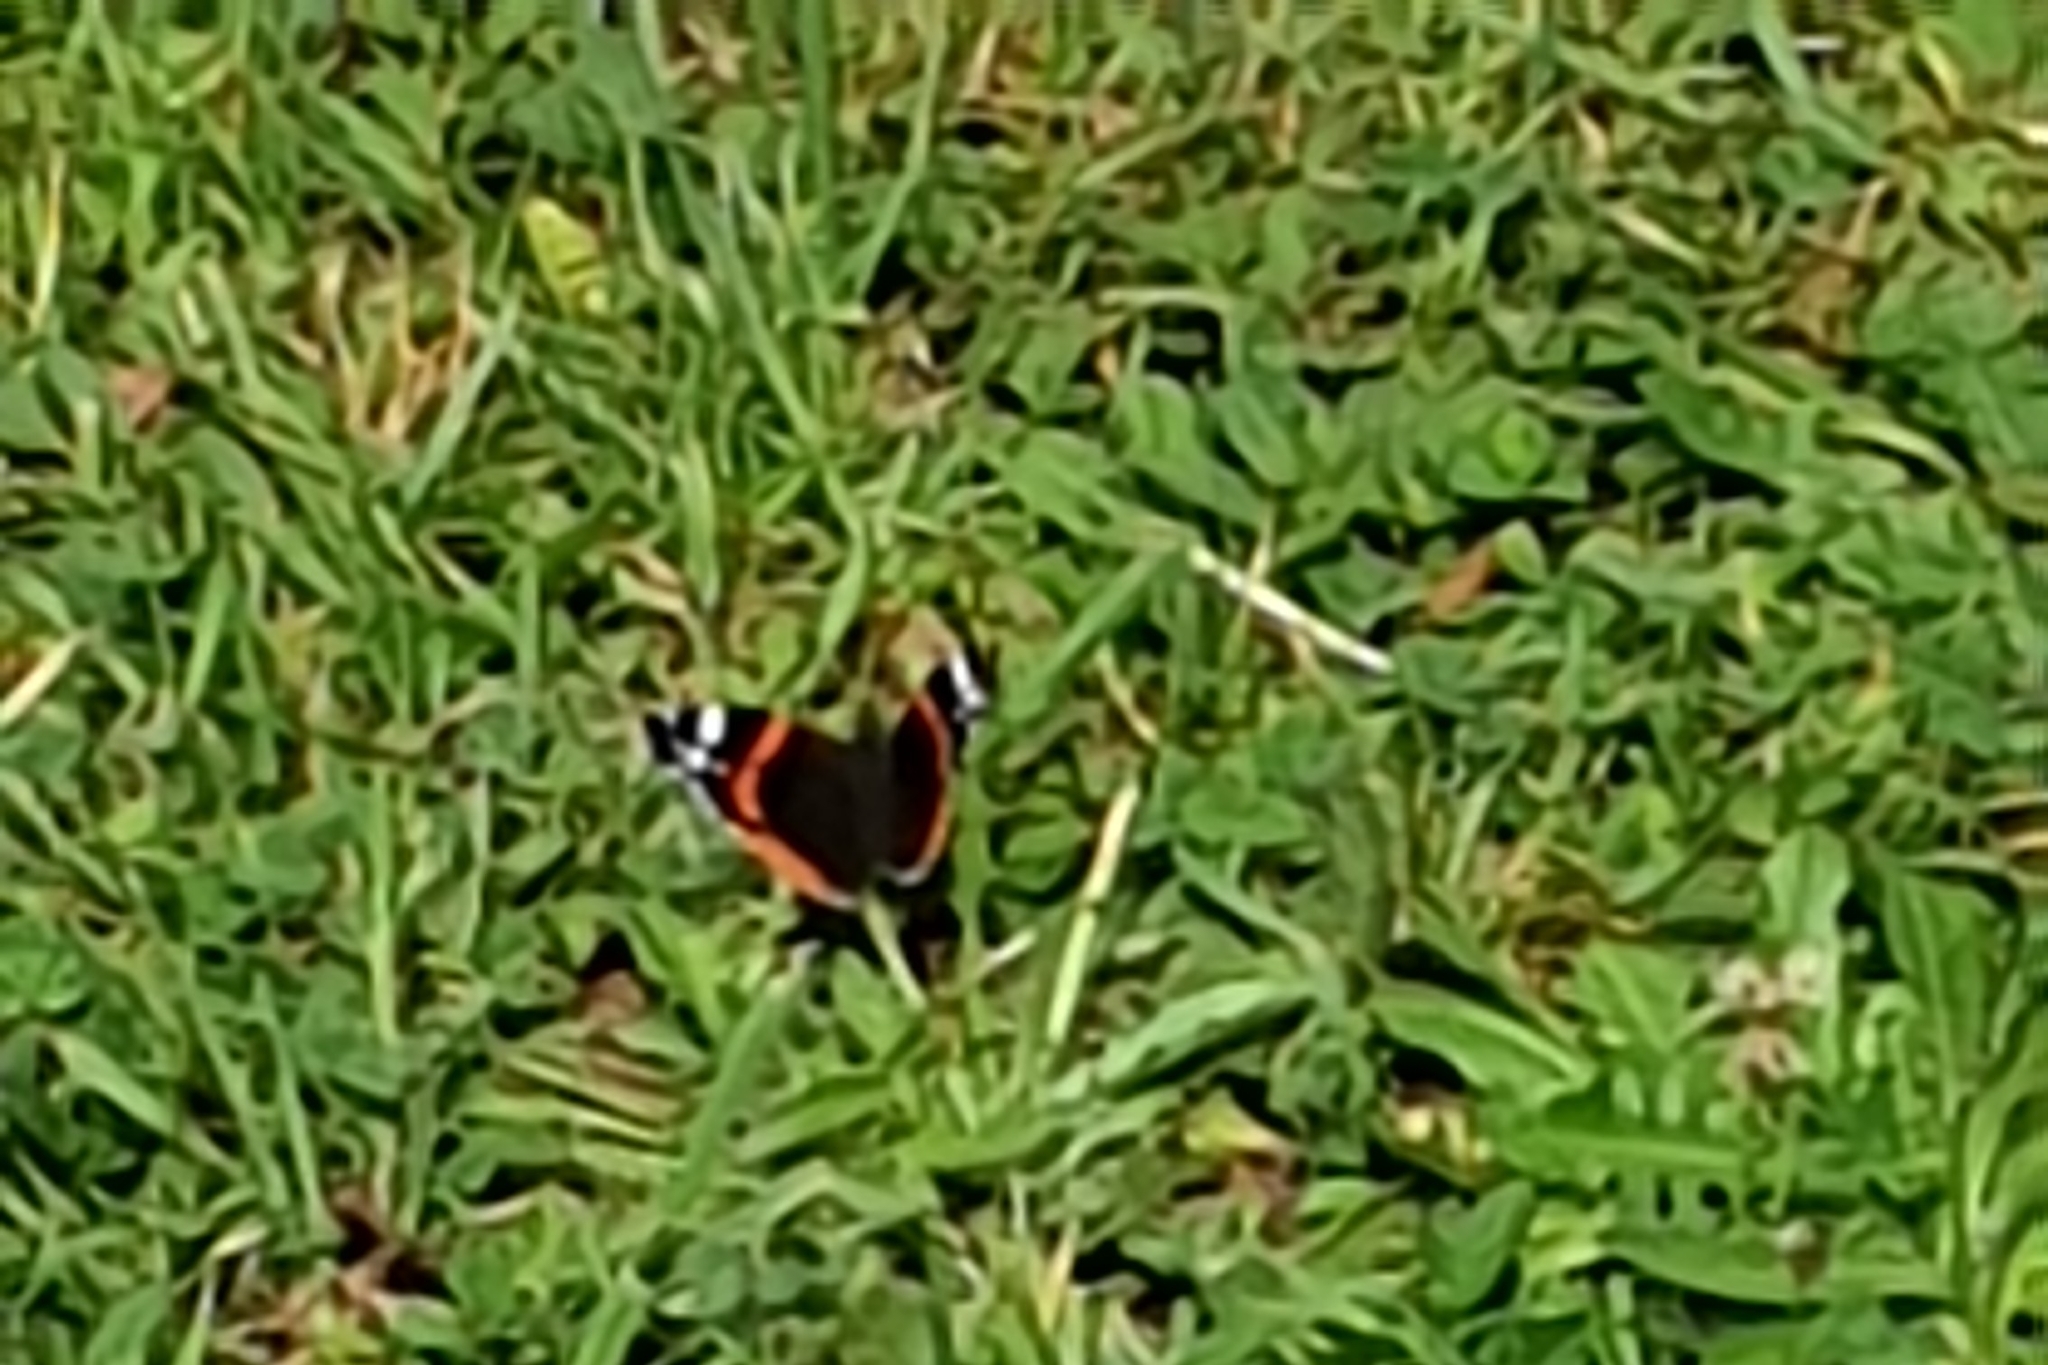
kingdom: Animalia
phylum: Arthropoda
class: Insecta
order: Lepidoptera
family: Nymphalidae
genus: Vanessa
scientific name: Vanessa atalanta
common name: Red admiral
